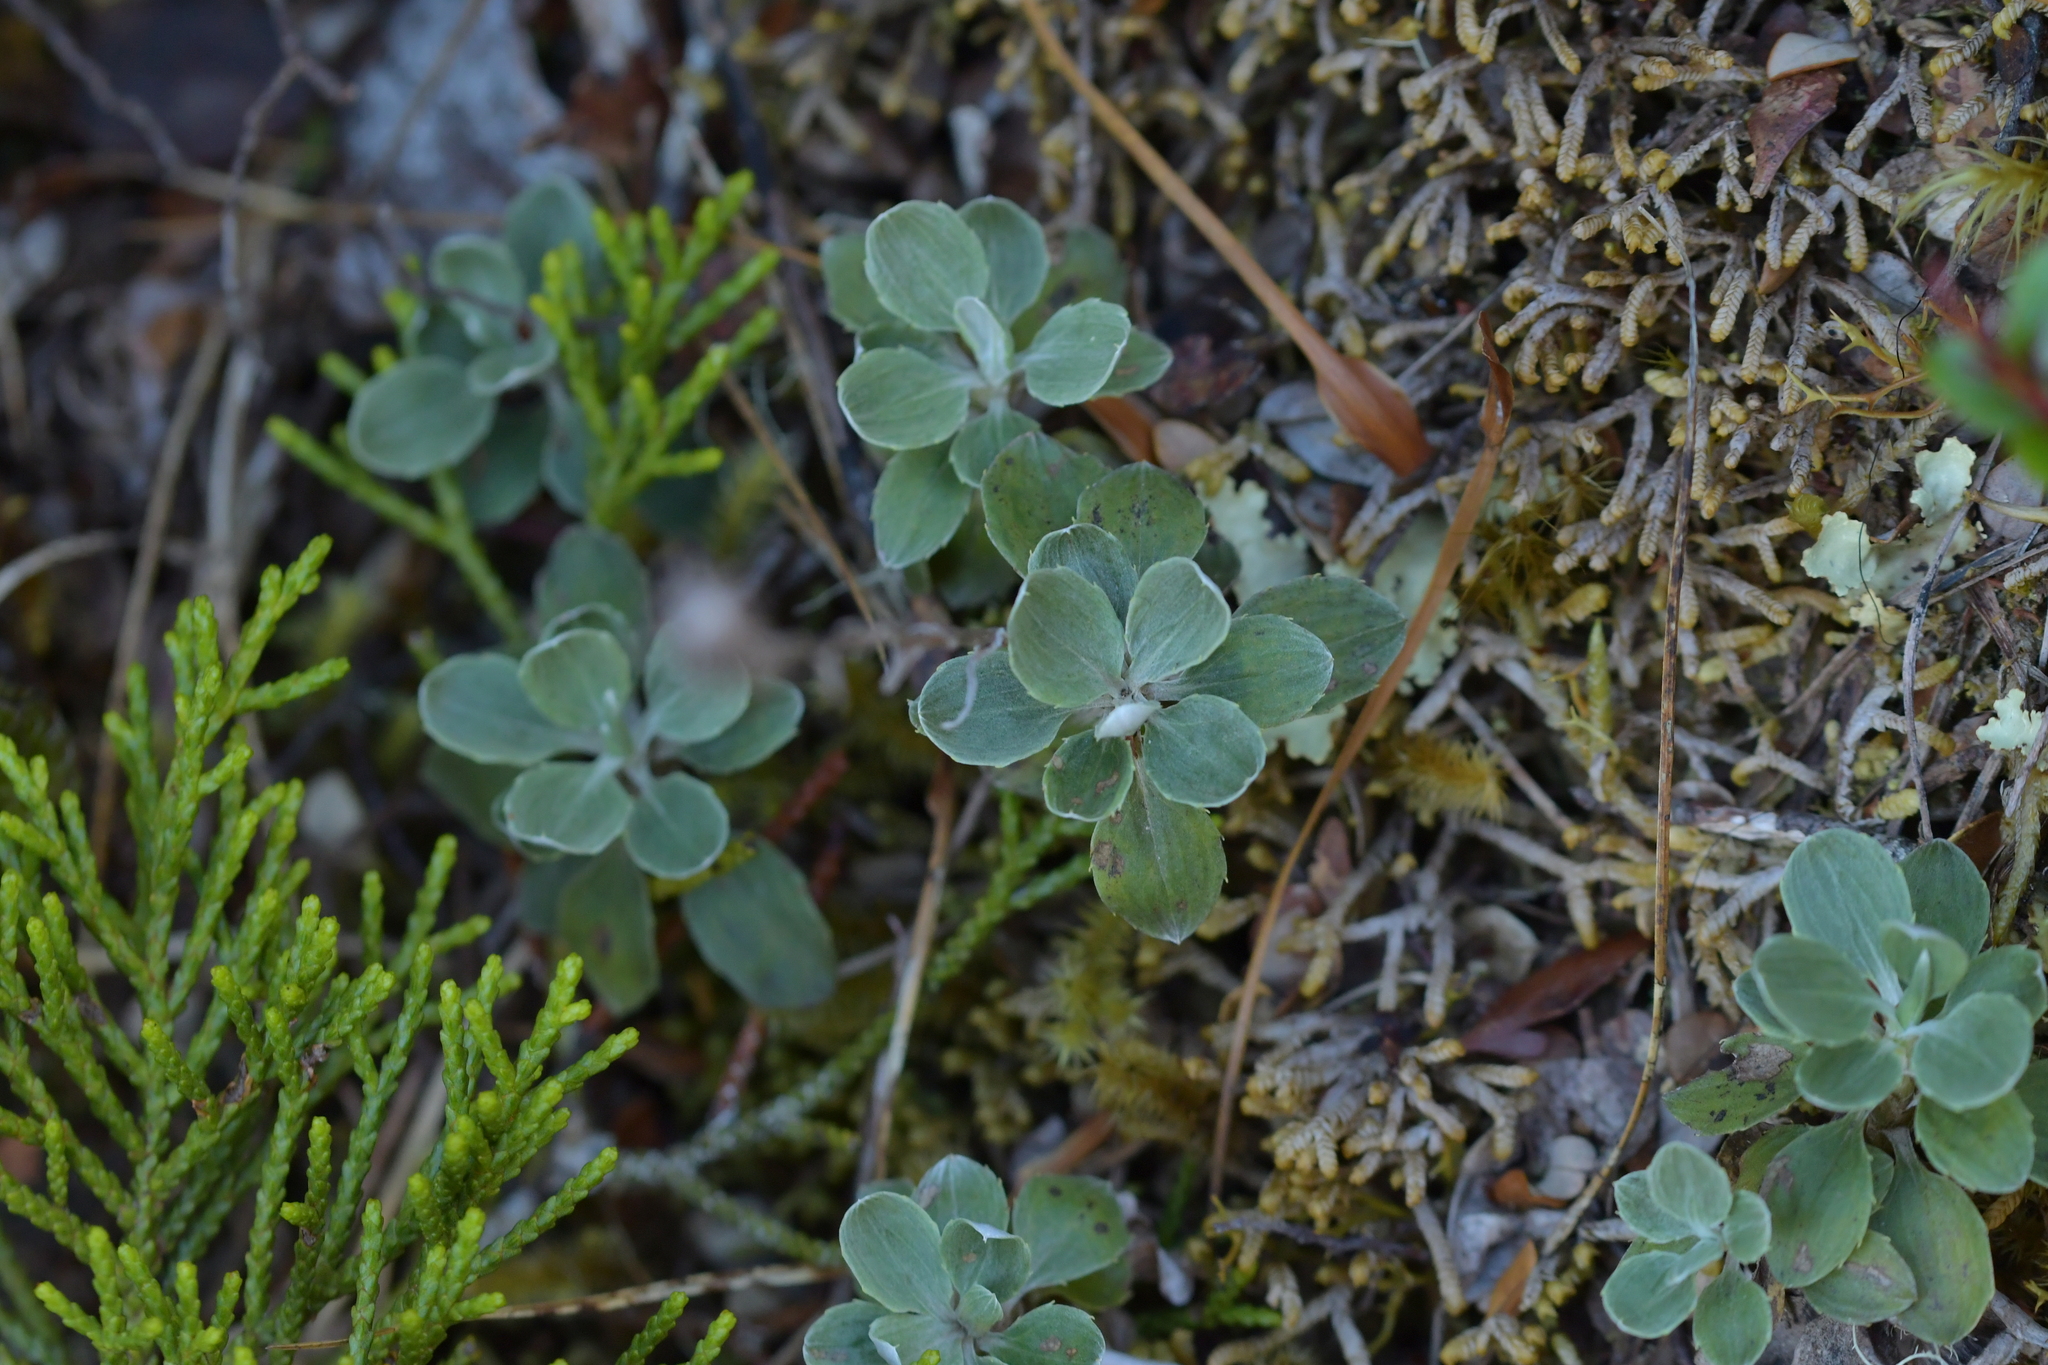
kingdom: Plantae
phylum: Tracheophyta
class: Magnoliopsida
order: Asterales
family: Asteraceae
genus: Celmisia
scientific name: Celmisia discolor
